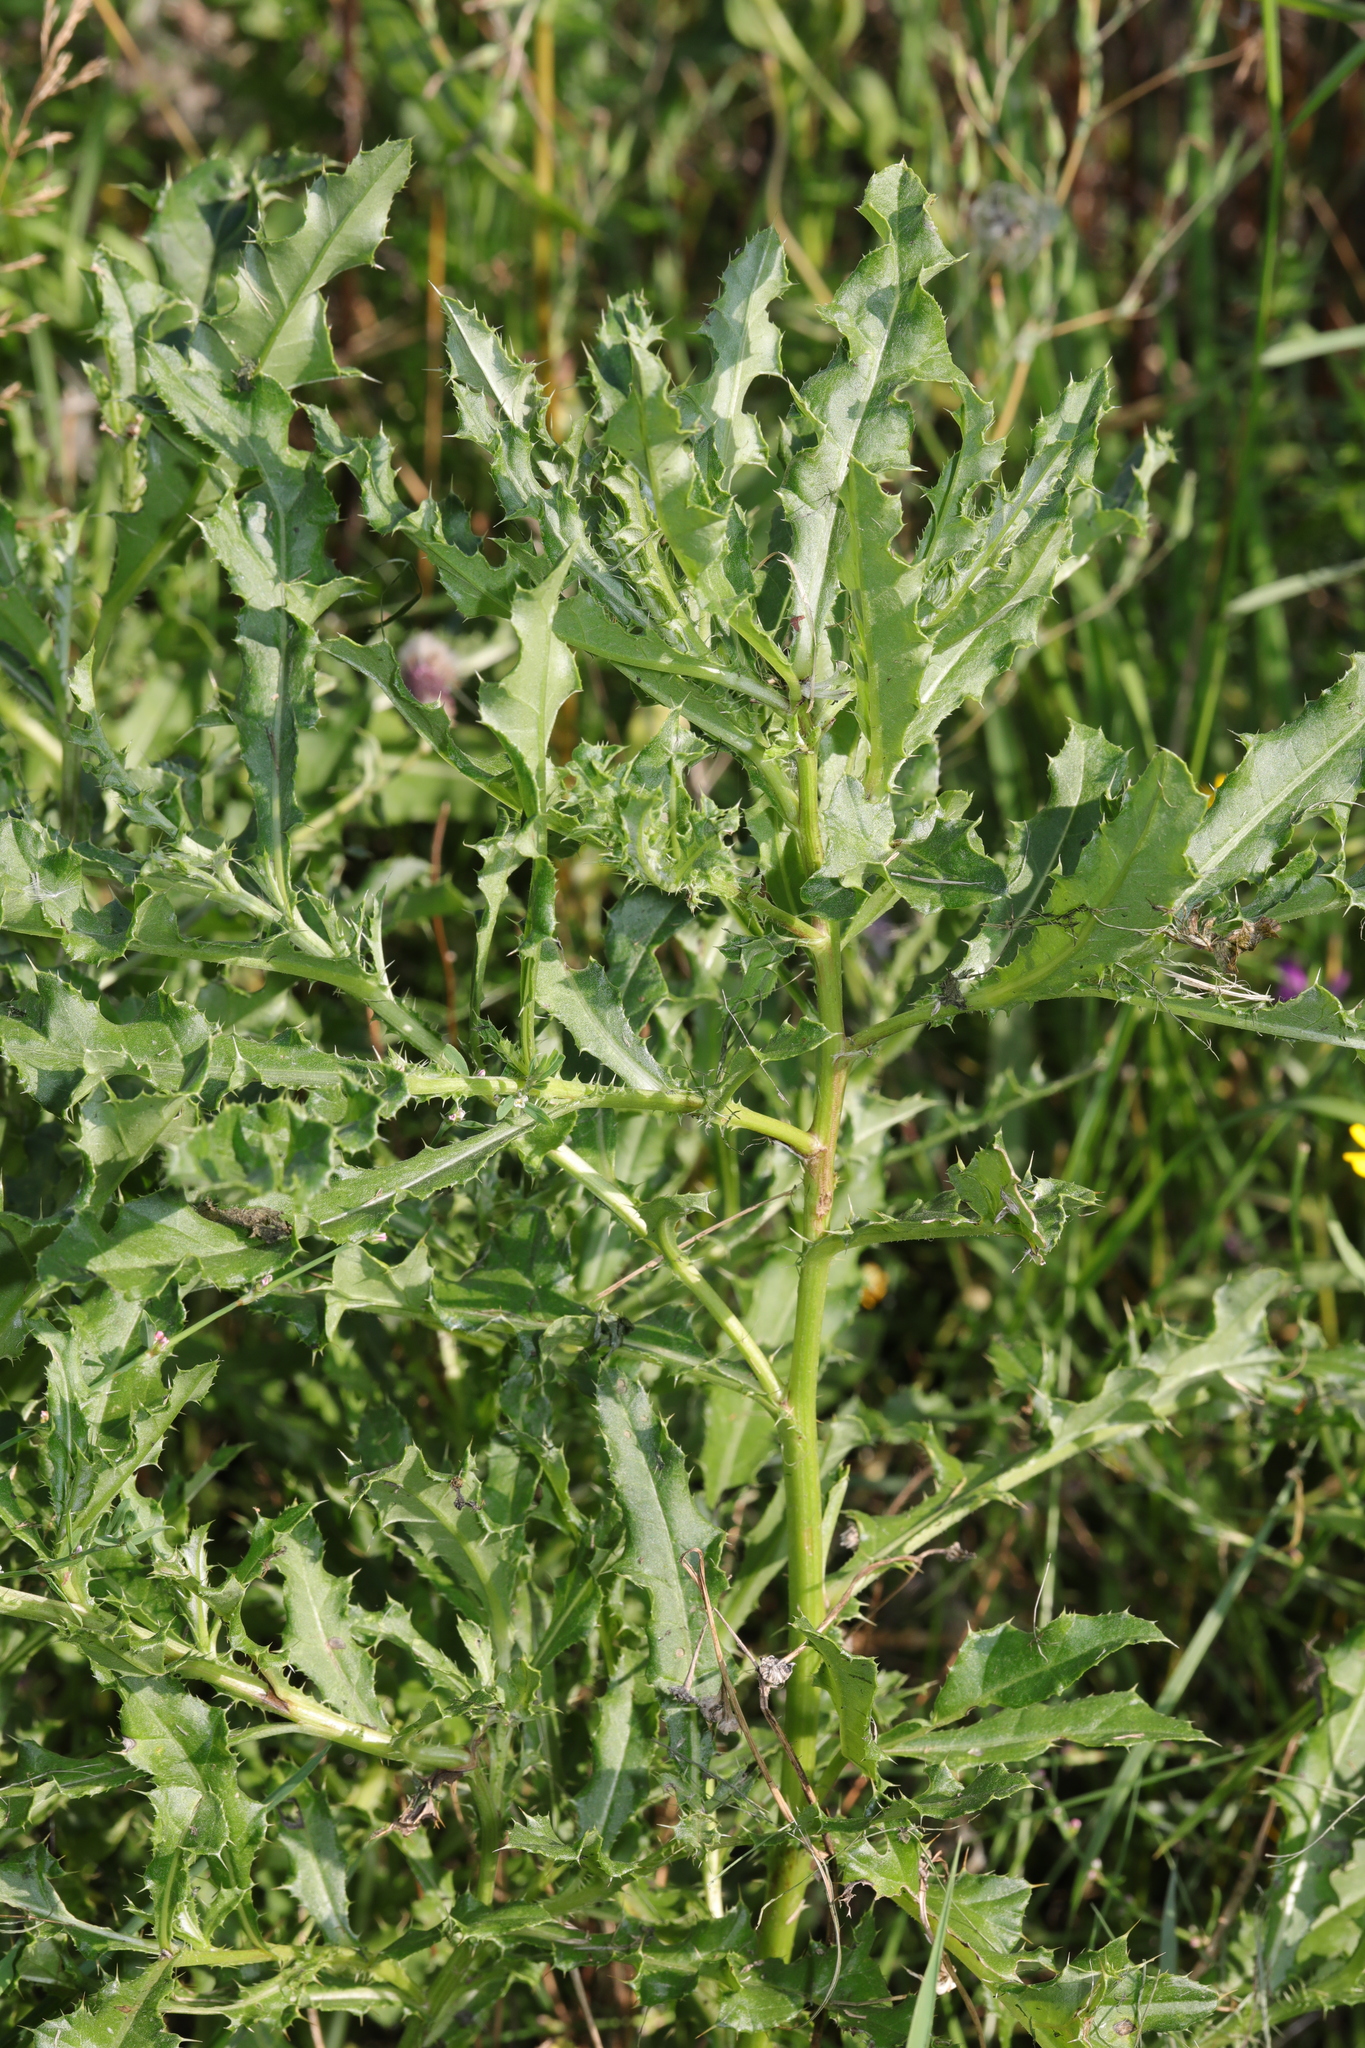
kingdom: Plantae
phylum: Tracheophyta
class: Magnoliopsida
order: Asterales
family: Asteraceae
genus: Cirsium
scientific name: Cirsium arvense
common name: Creeping thistle
